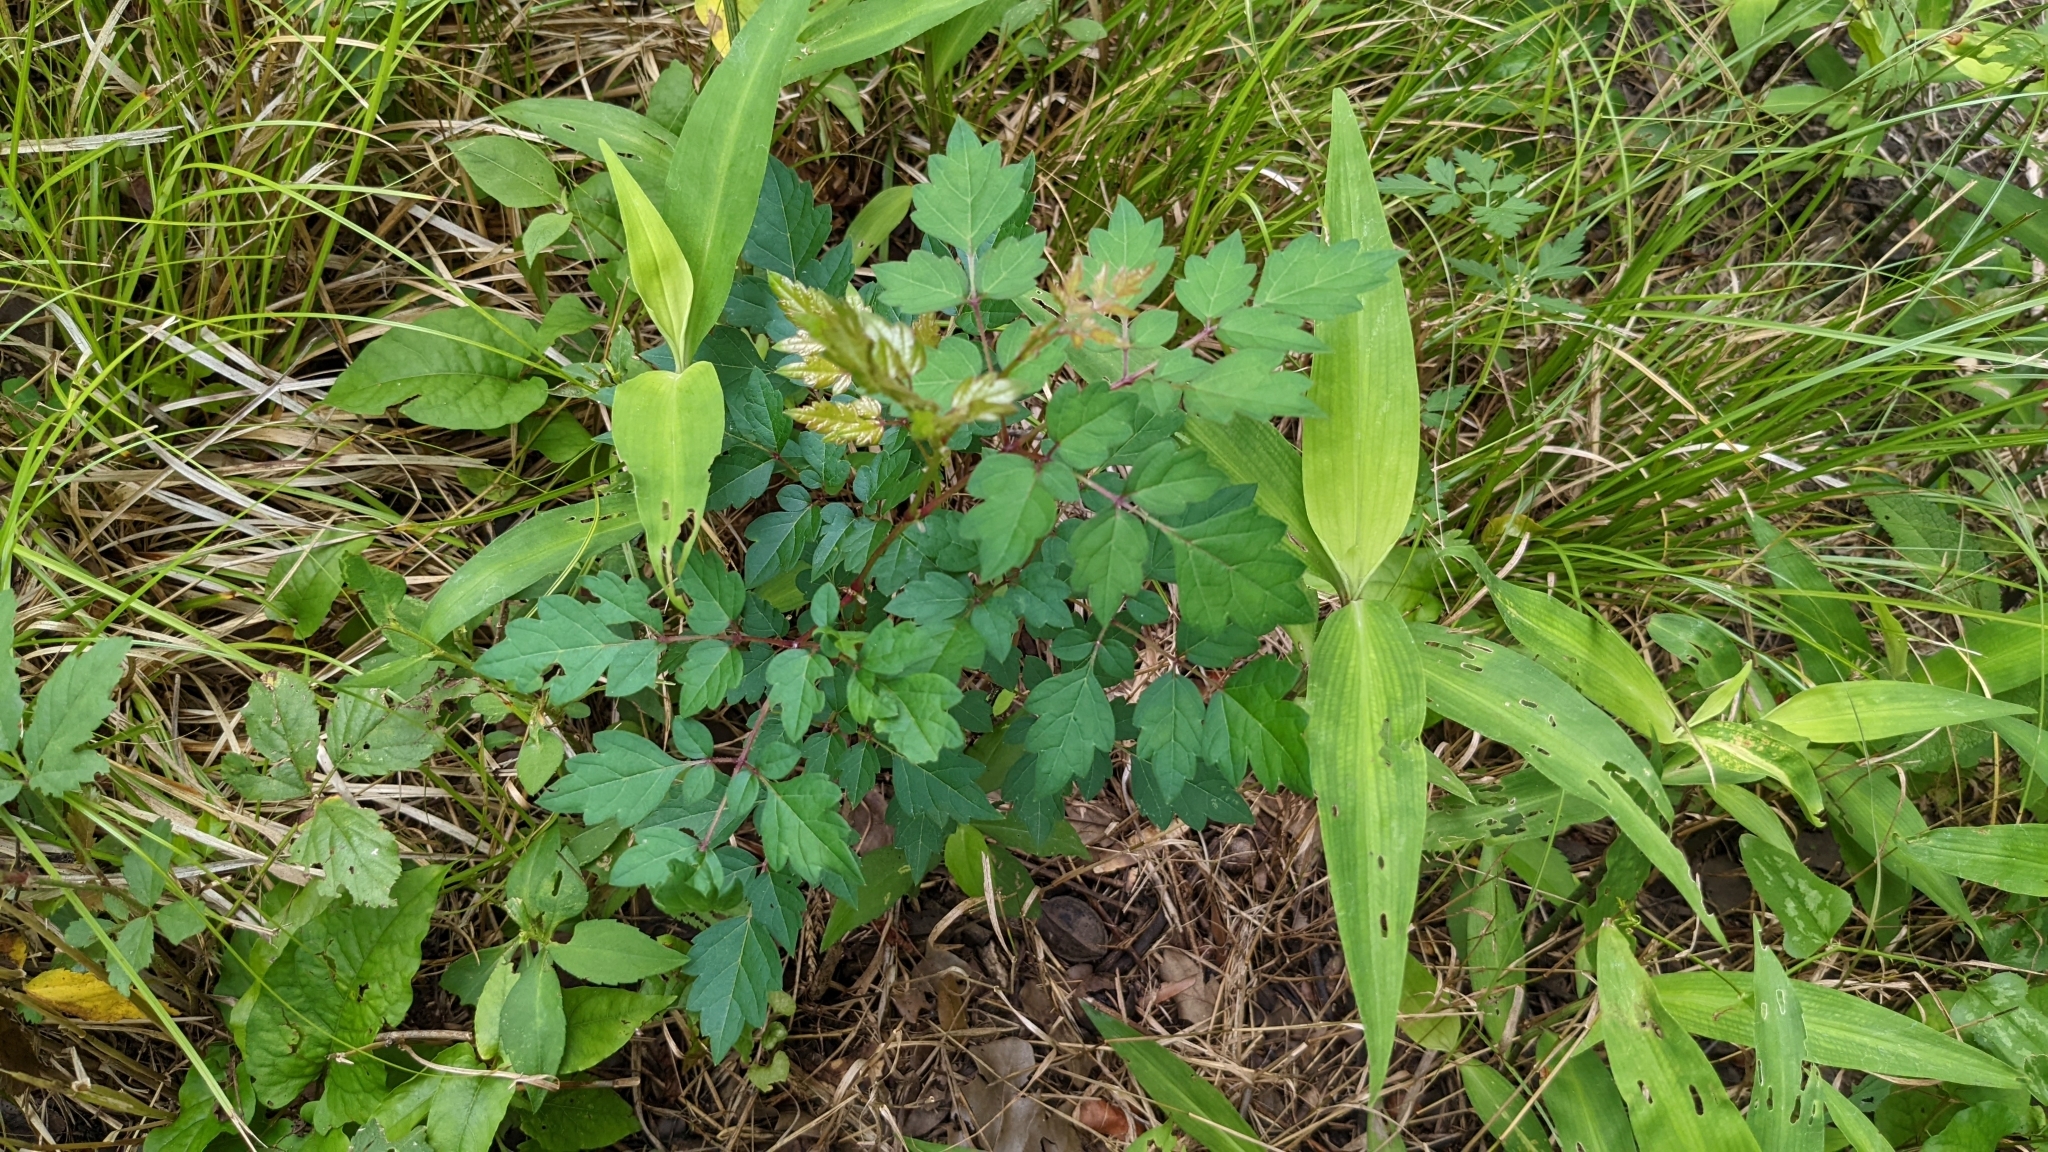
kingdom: Plantae
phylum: Tracheophyta
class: Magnoliopsida
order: Vitales
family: Vitaceae
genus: Nekemias
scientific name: Nekemias arborea
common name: Peppervine
